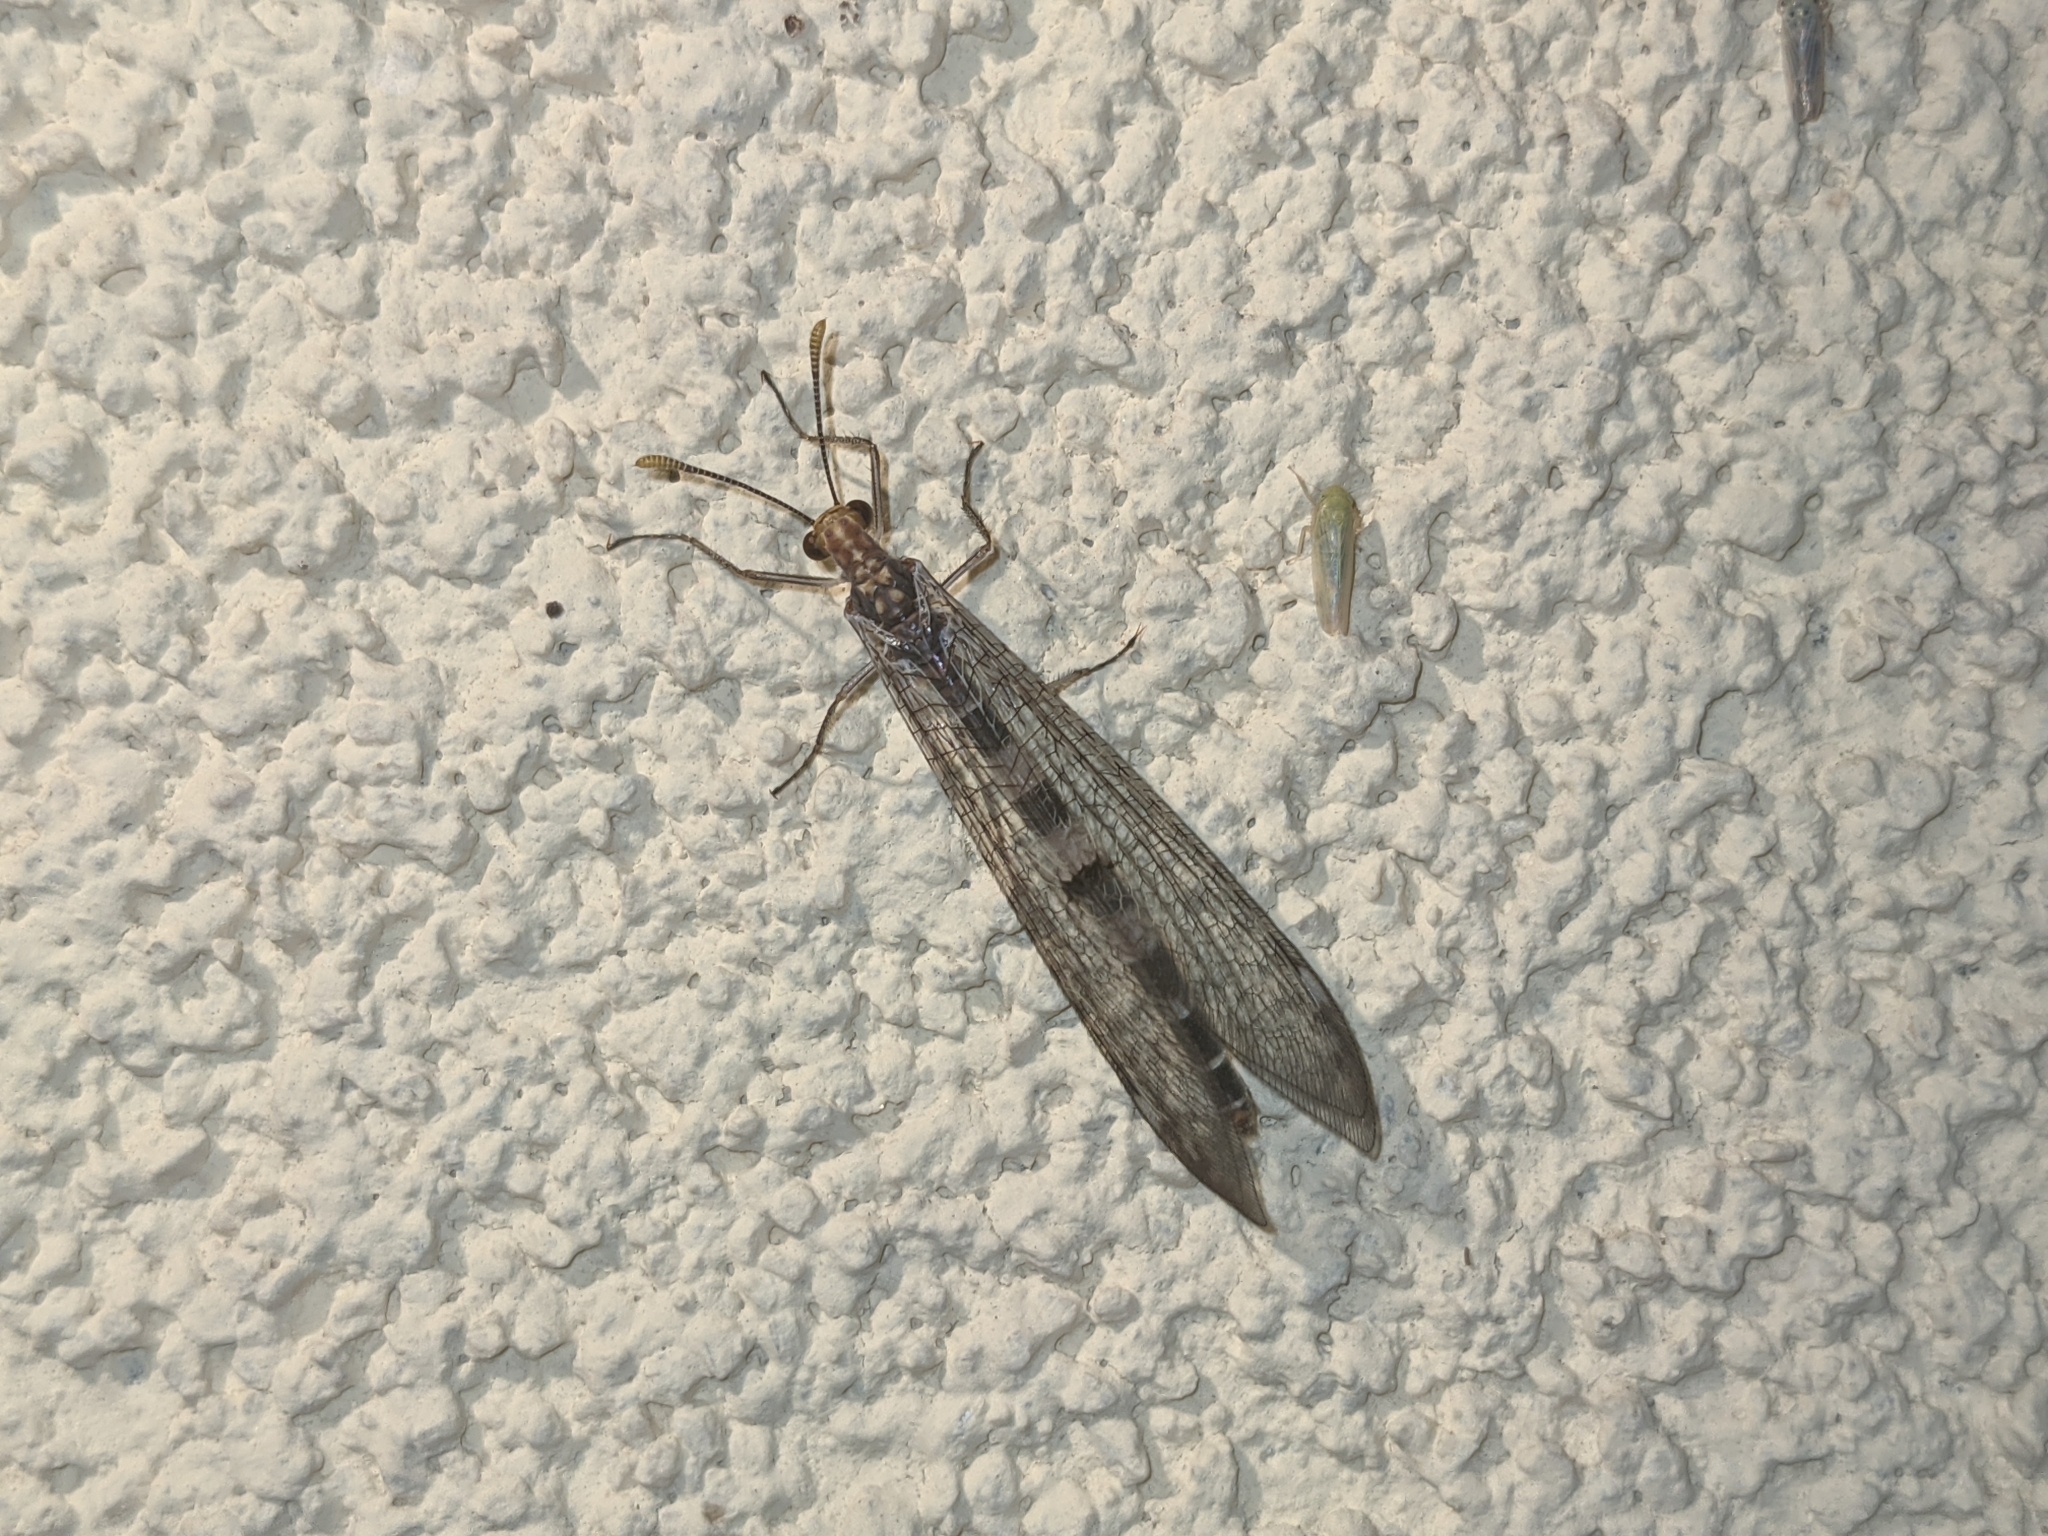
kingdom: Animalia
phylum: Arthropoda
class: Insecta
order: Neuroptera
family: Myrmeleontidae
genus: Megistopus
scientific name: Megistopus flavicornis
